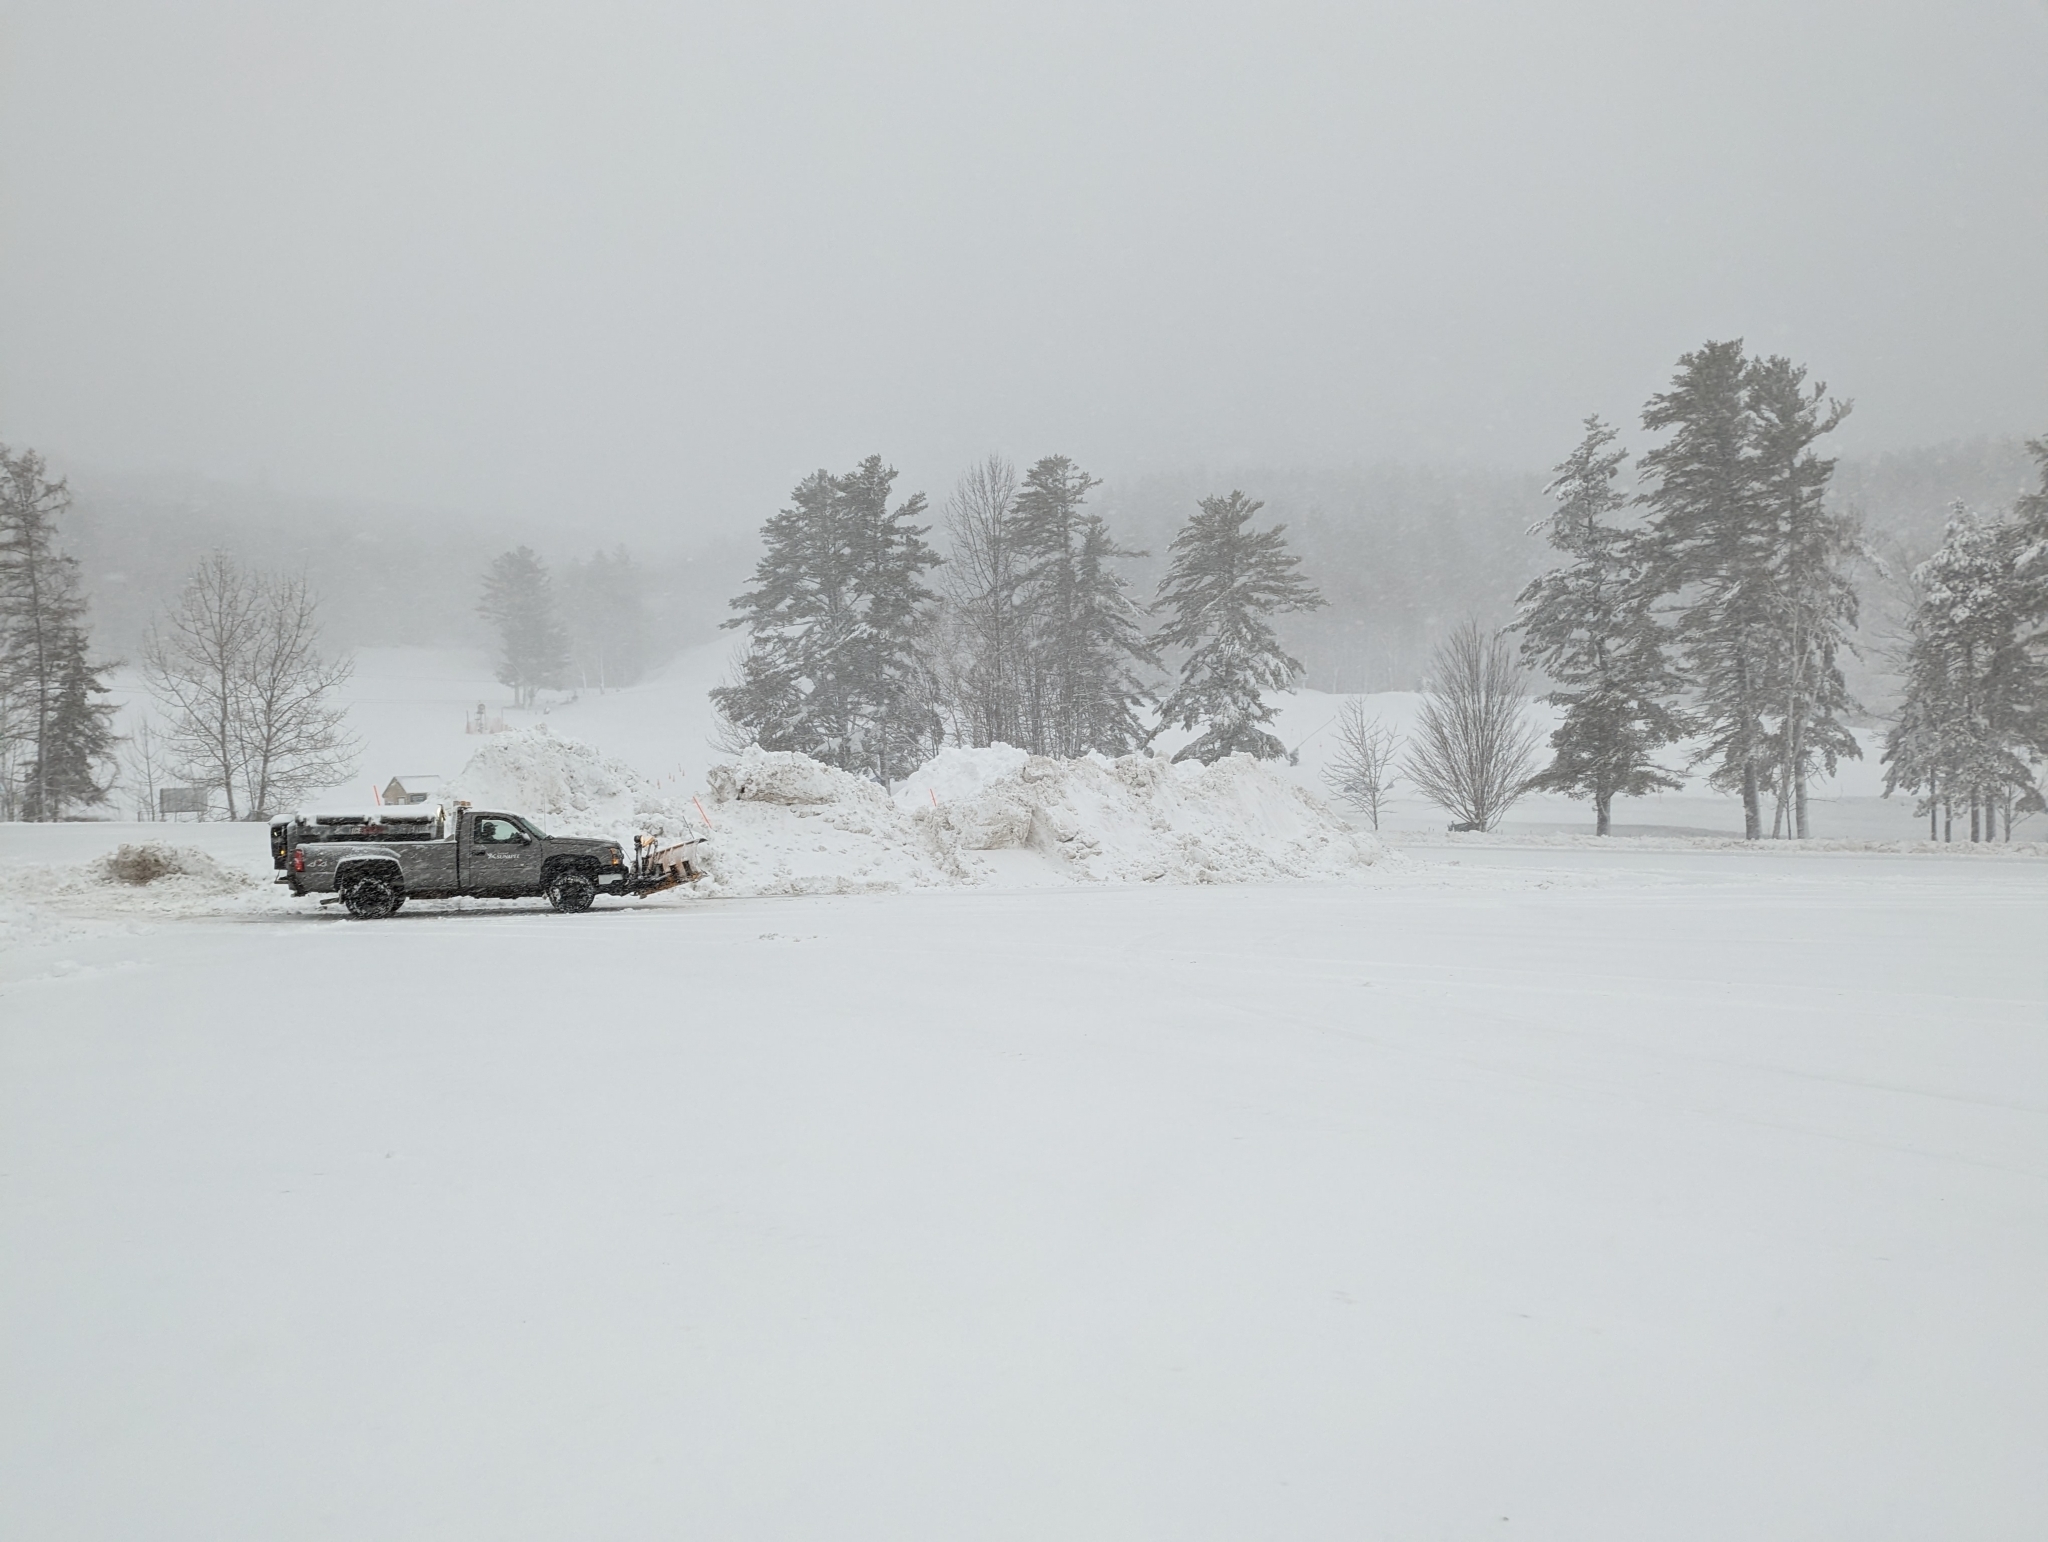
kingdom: Plantae
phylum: Tracheophyta
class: Pinopsida
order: Pinales
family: Pinaceae
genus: Pinus
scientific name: Pinus strobus
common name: Weymouth pine
